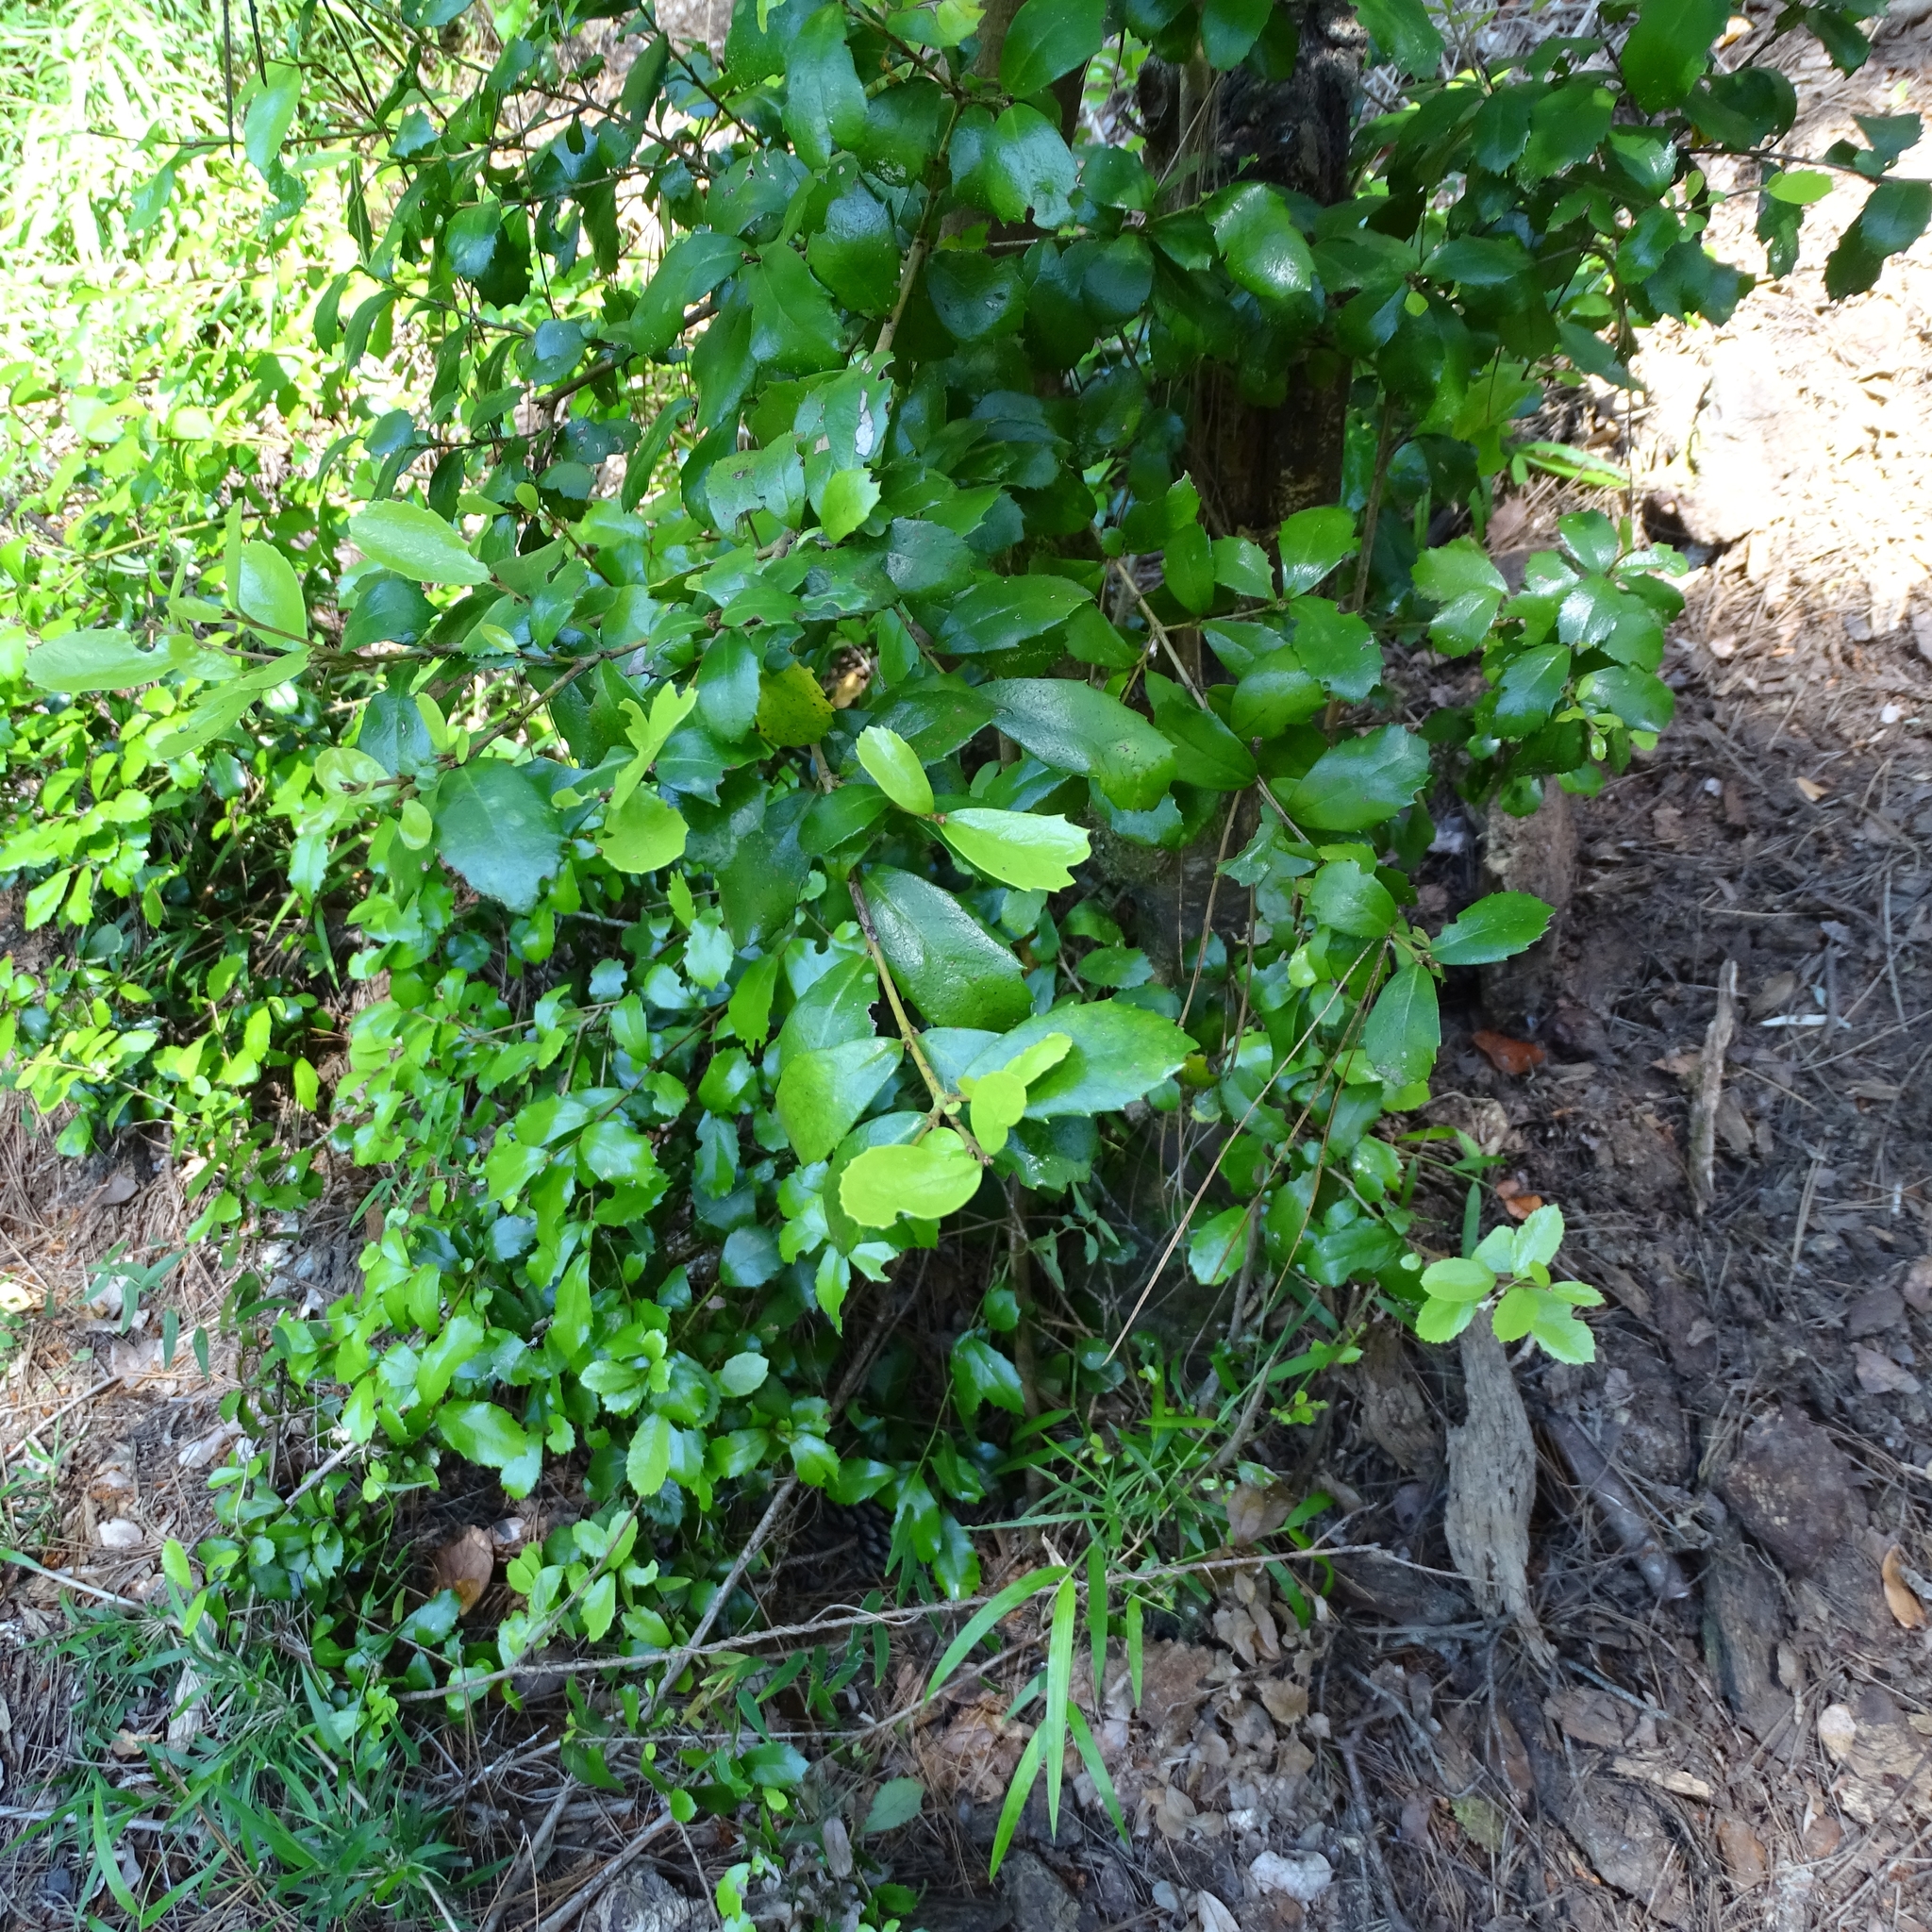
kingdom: Plantae
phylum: Tracheophyta
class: Magnoliopsida
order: Proteales
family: Proteaceae
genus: Lomatia
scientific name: Lomatia dentata
